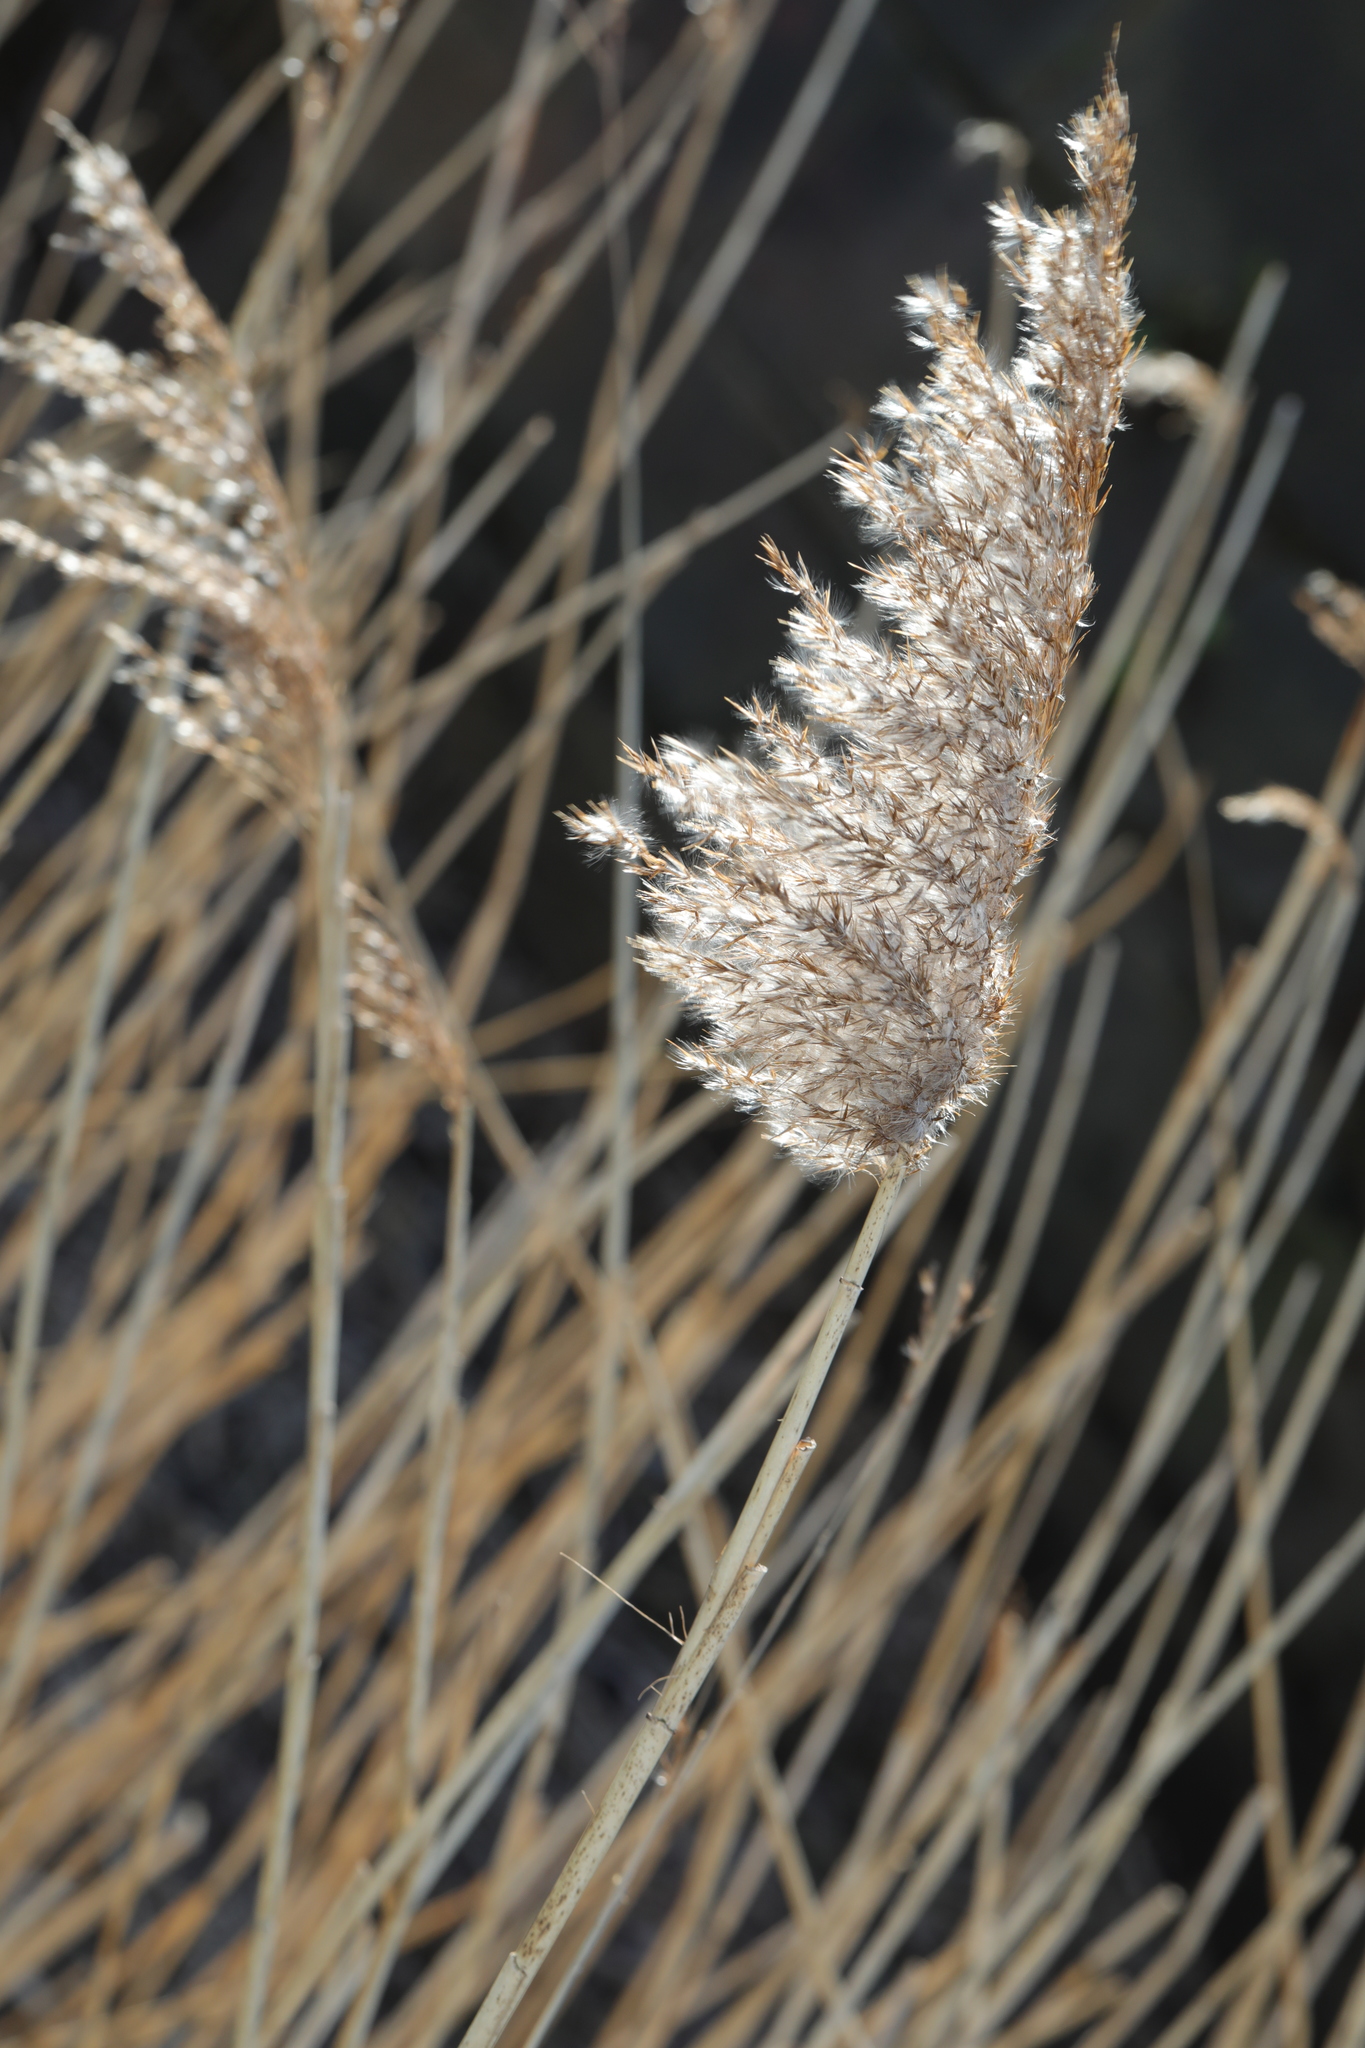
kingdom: Plantae
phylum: Tracheophyta
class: Liliopsida
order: Poales
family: Poaceae
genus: Phragmites
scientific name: Phragmites australis
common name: Common reed
